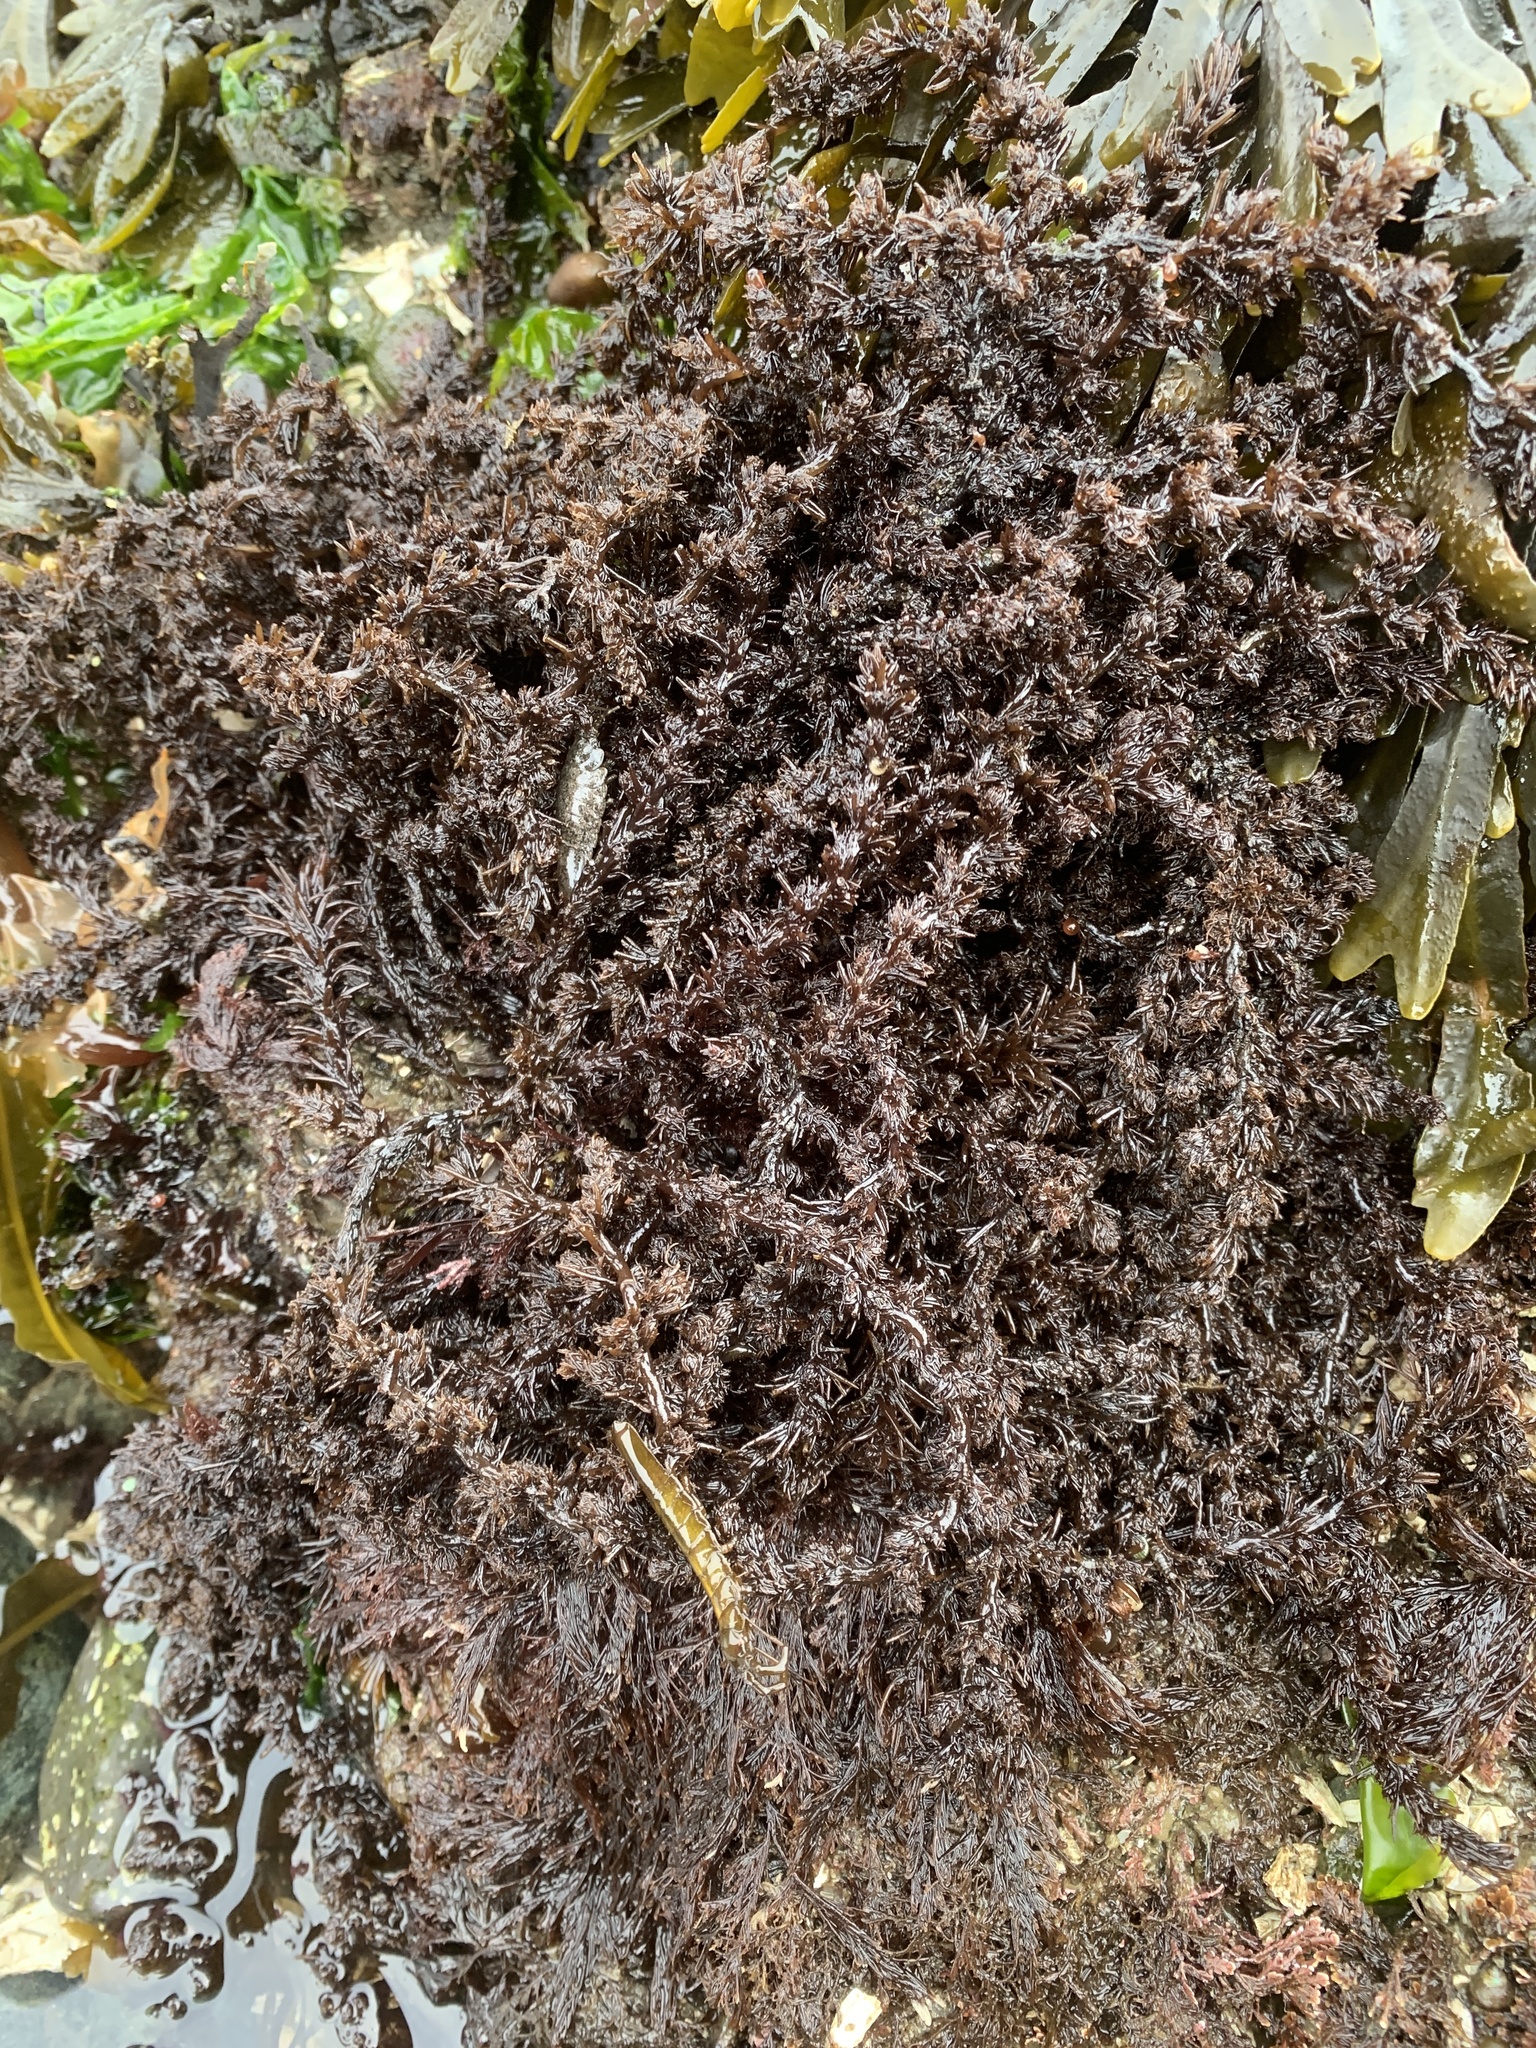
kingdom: Plantae
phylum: Rhodophyta
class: Florideophyceae
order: Ceramiales
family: Rhodomelaceae
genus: Neorhodomela
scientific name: Neorhodomela larix
